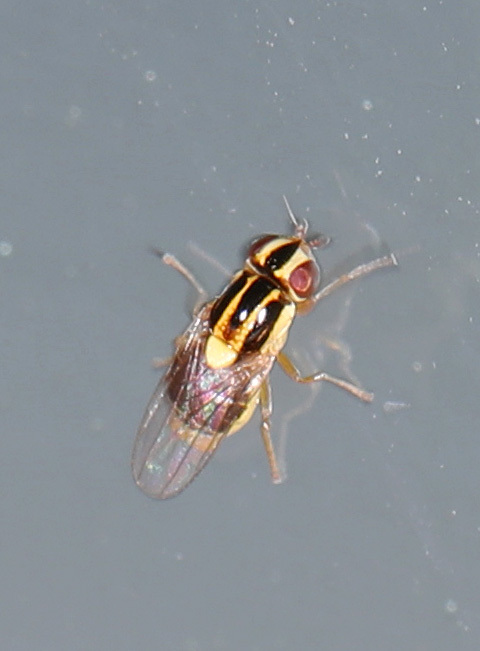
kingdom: Animalia
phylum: Arthropoda
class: Insecta
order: Diptera
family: Chloropidae
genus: Thaumatomyia
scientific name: Thaumatomyia
